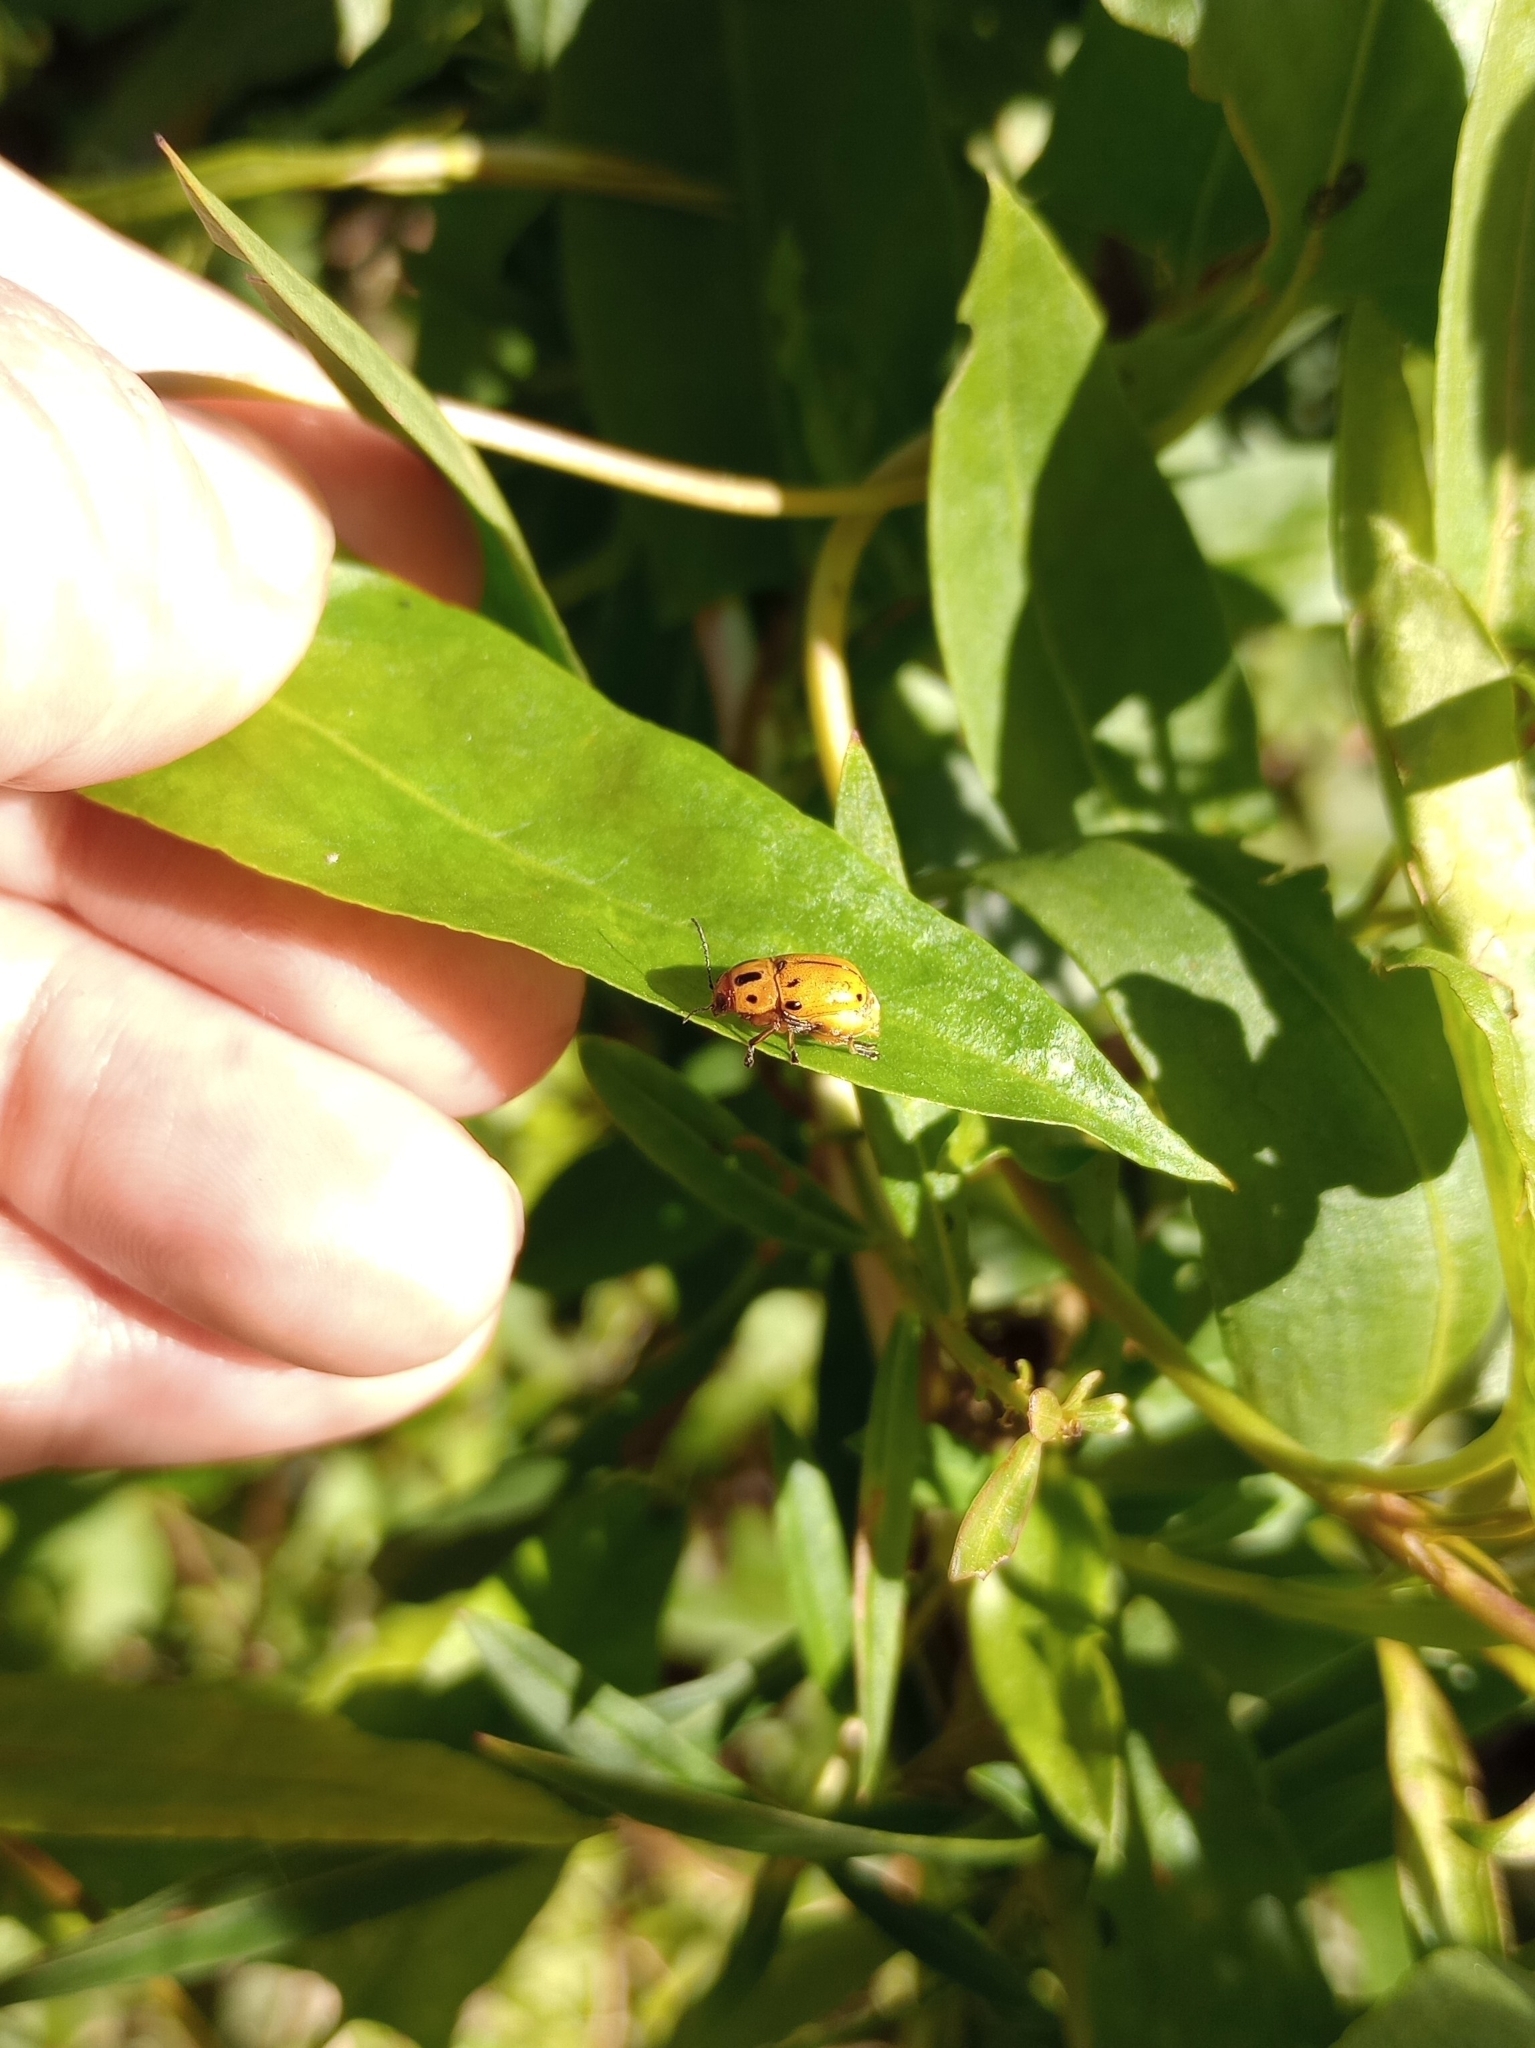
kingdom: Animalia
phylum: Arthropoda
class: Insecta
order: Coleoptera
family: Chrysomelidae
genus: Griburius
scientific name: Griburius
